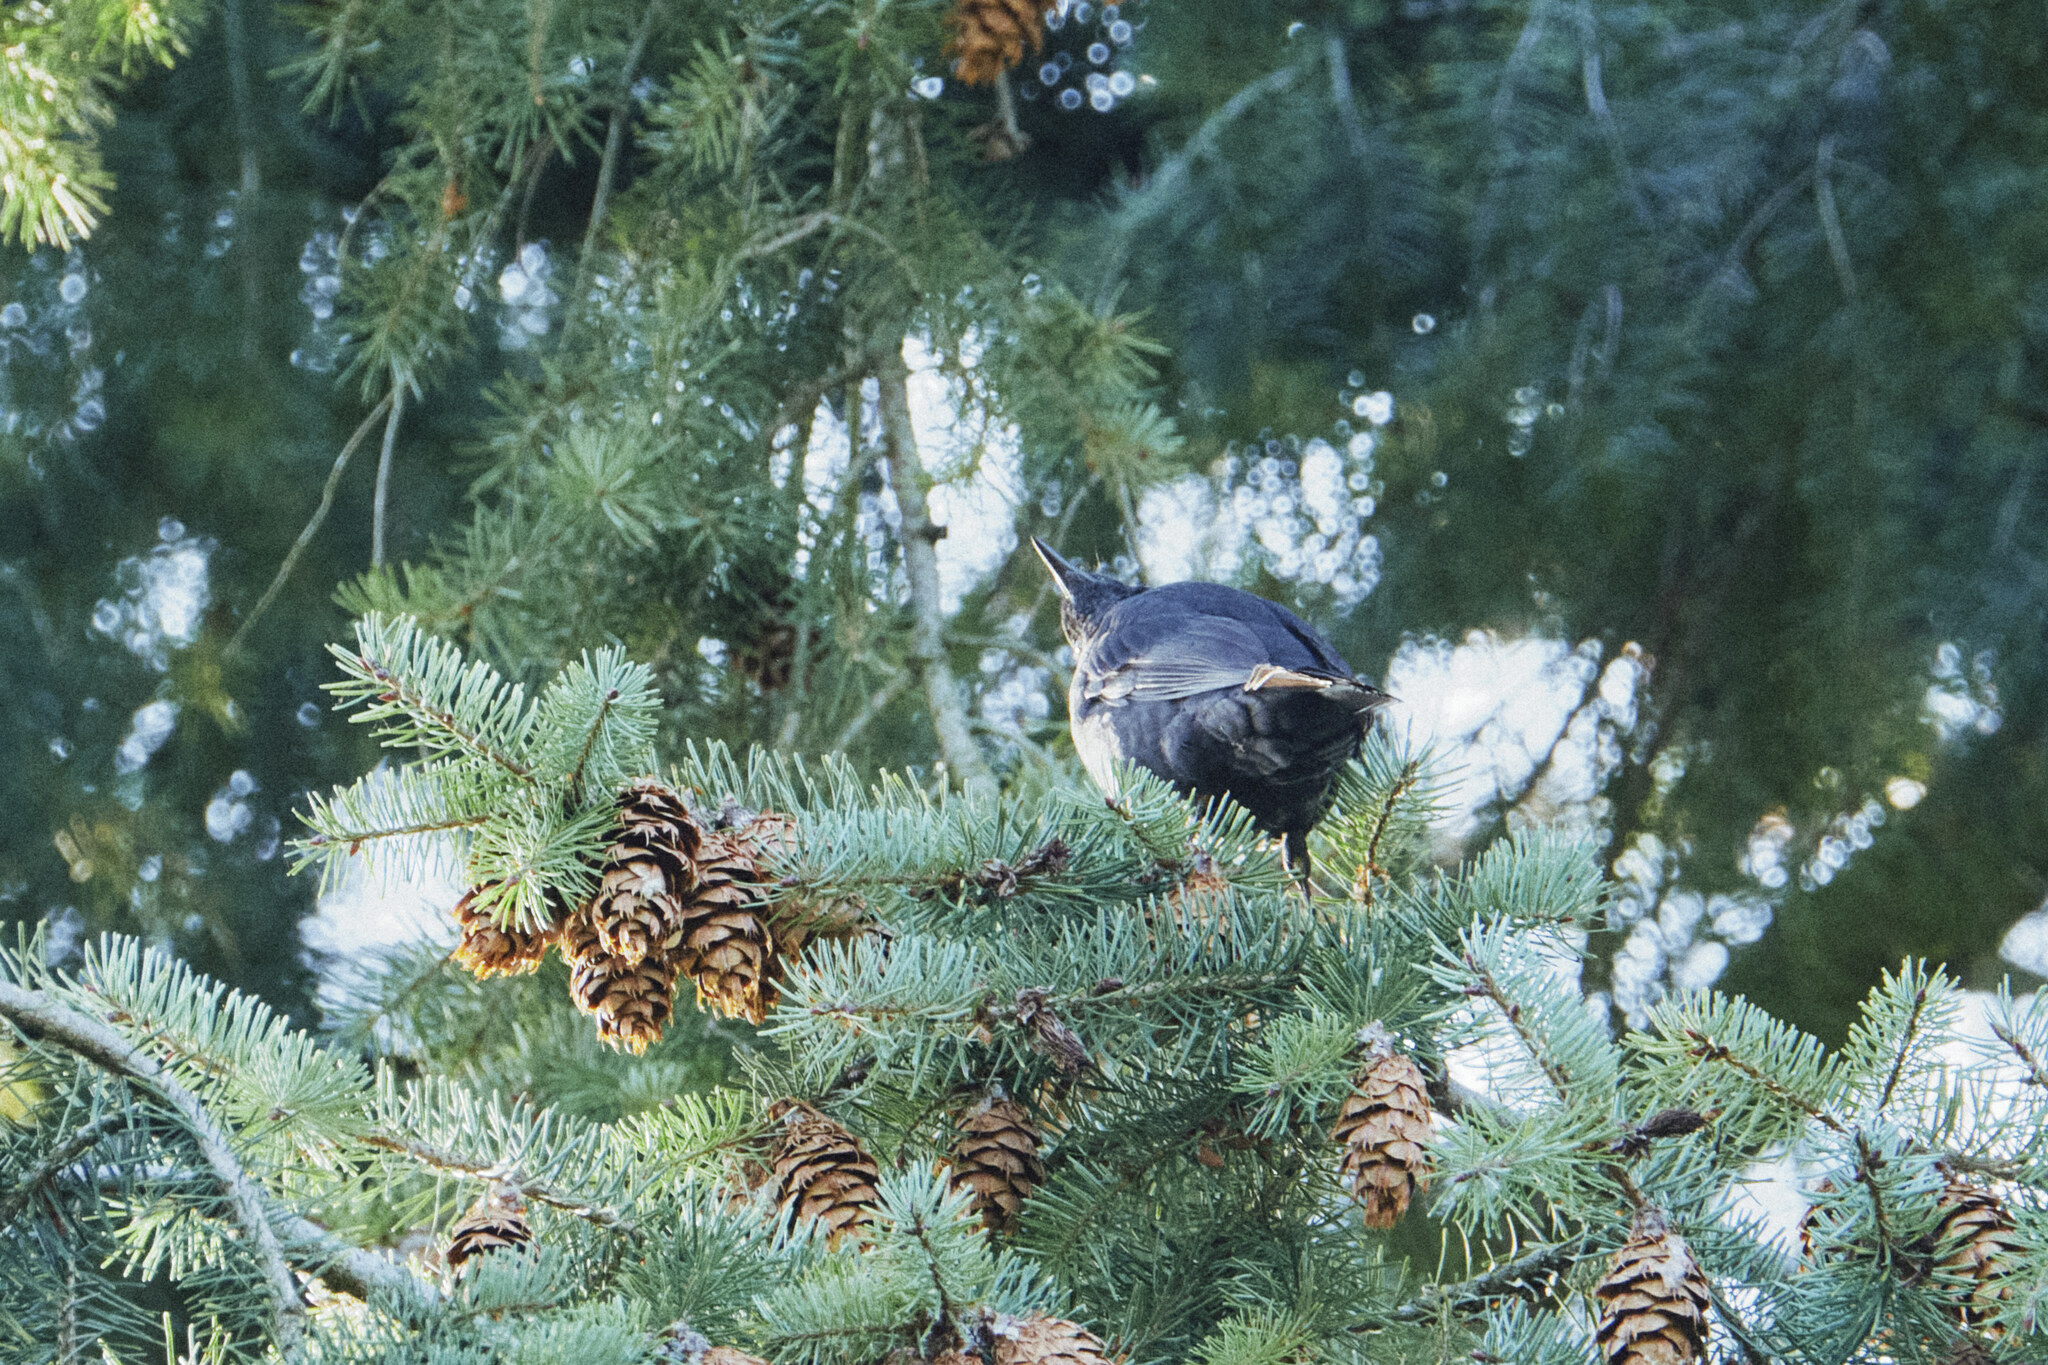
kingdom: Animalia
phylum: Chordata
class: Aves
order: Passeriformes
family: Turdidae
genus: Turdus
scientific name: Turdus merula
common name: Common blackbird
